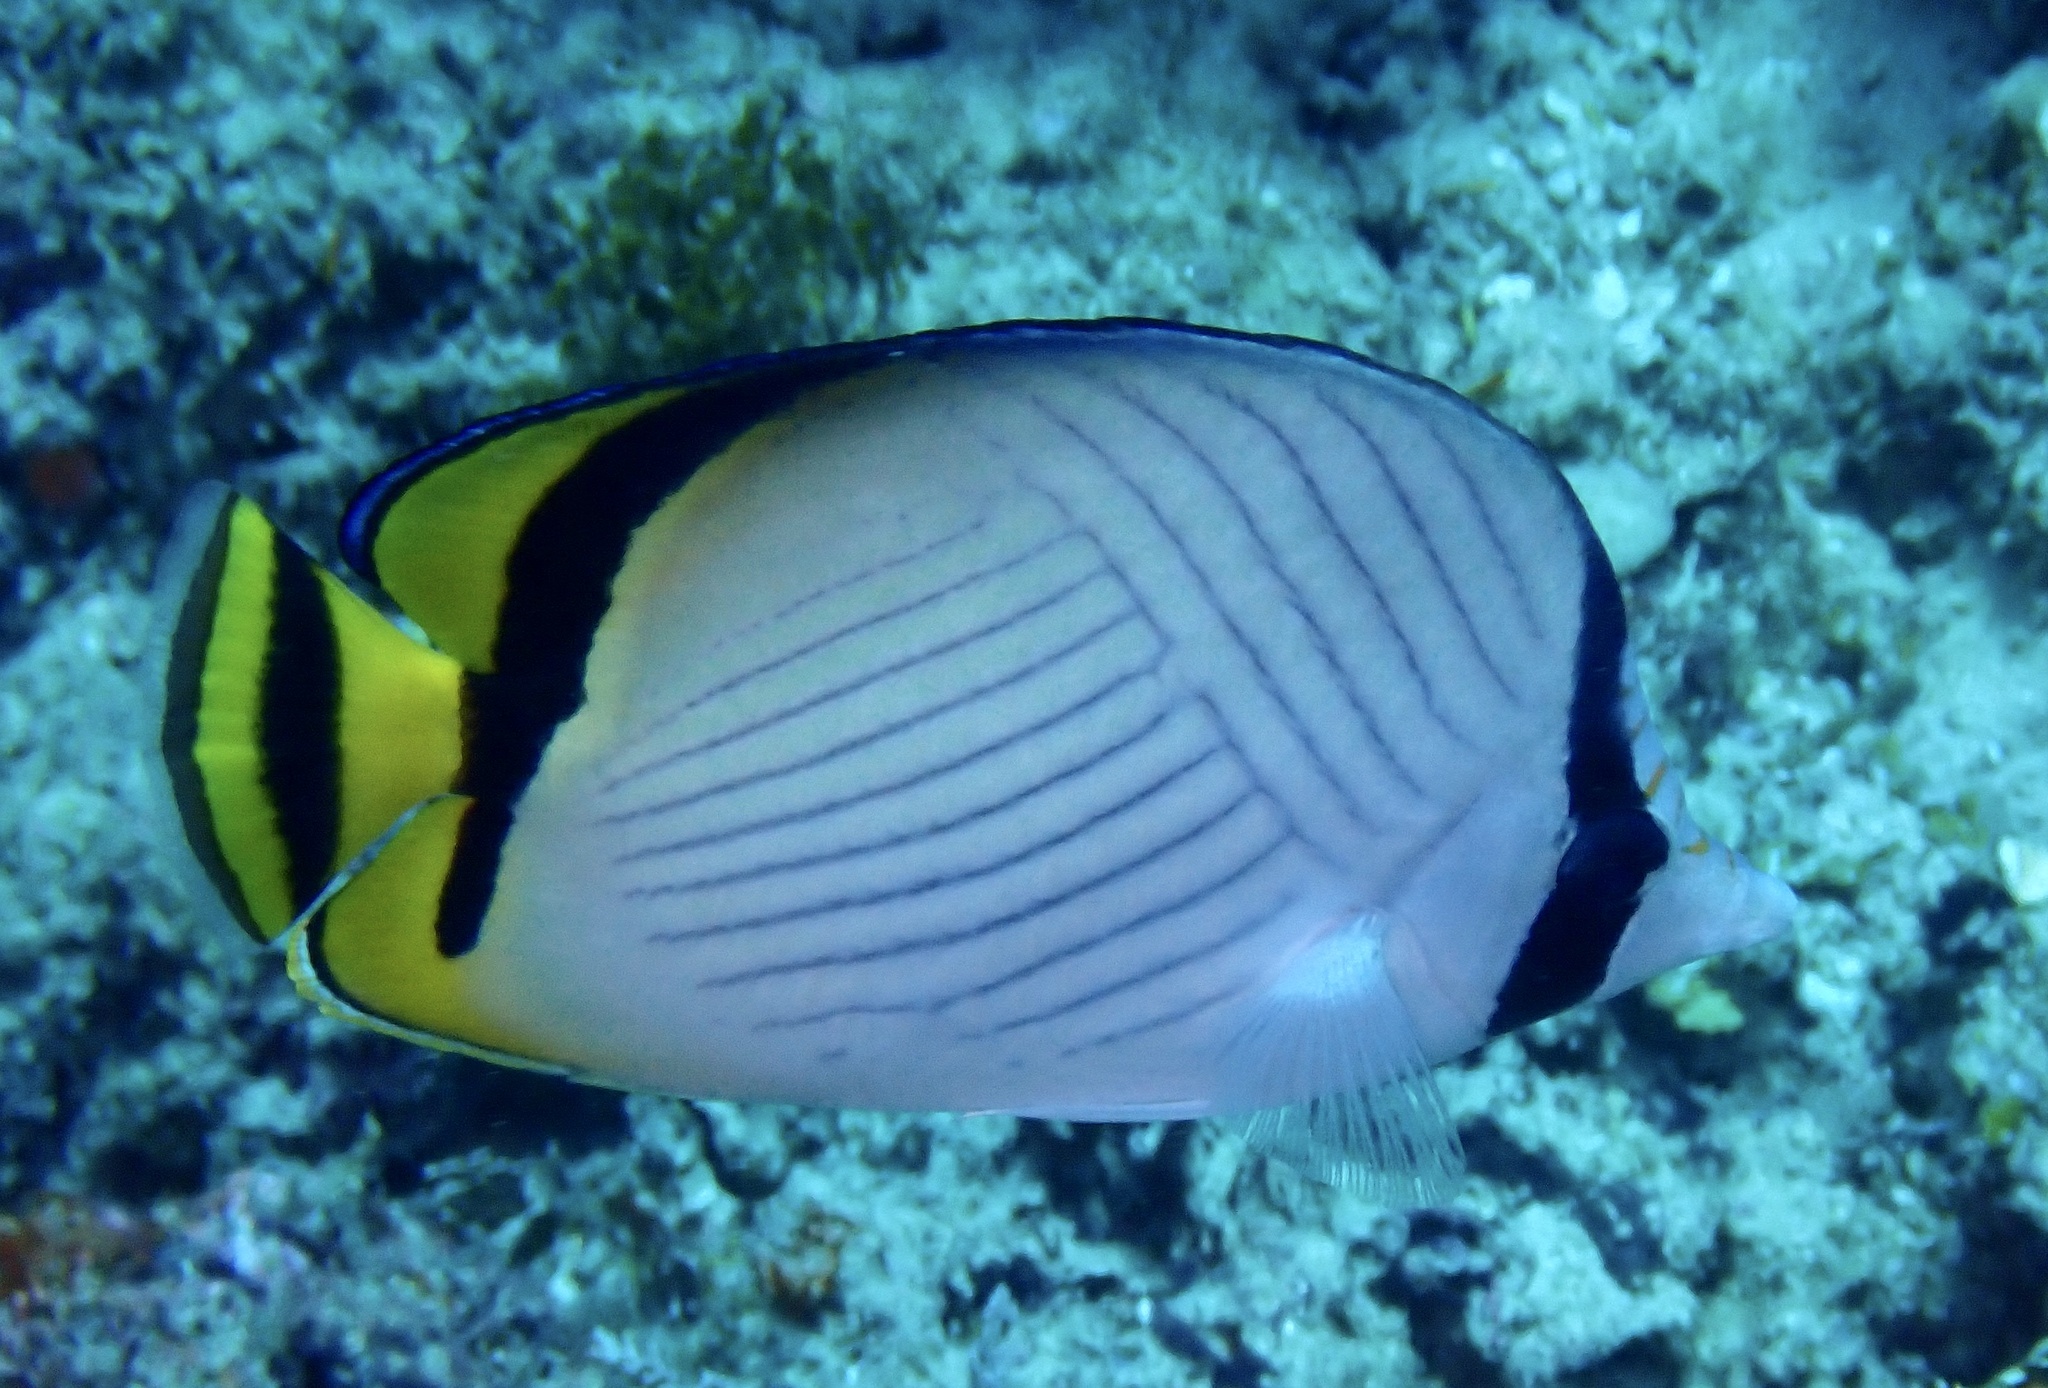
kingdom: Animalia
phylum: Chordata
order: Perciformes
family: Chaetodontidae
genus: Chaetodon
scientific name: Chaetodon vagabundus
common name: Vagabond butterflyfish
